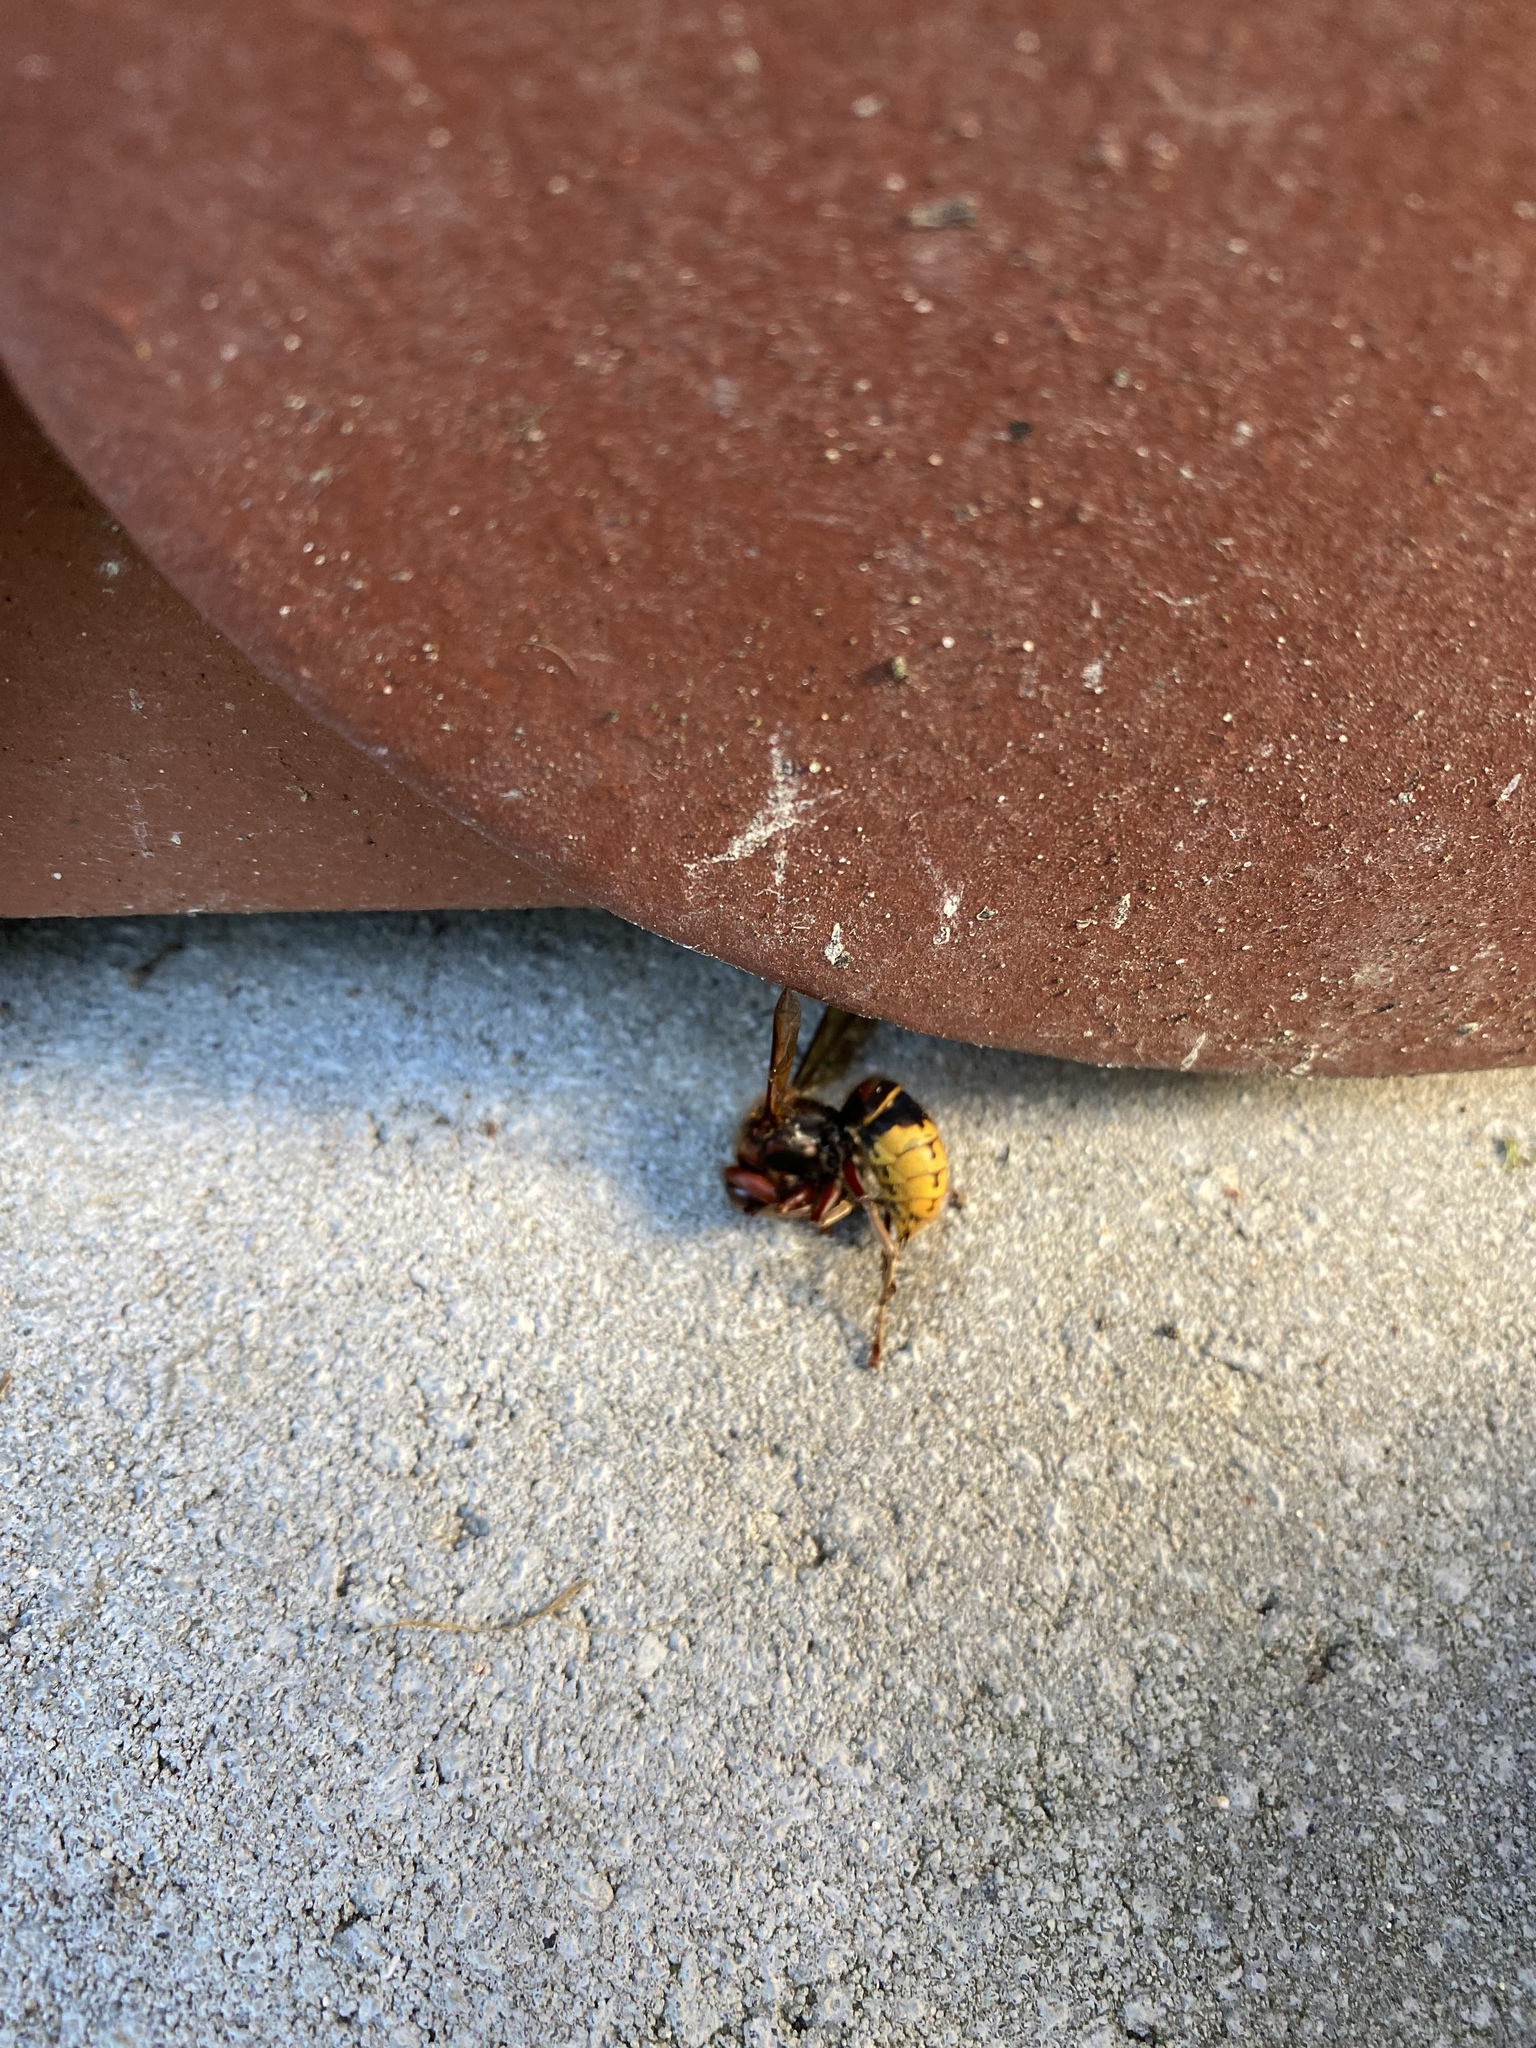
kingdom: Animalia
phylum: Arthropoda
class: Insecta
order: Hymenoptera
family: Vespidae
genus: Vespa
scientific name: Vespa crabro
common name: Hornet
